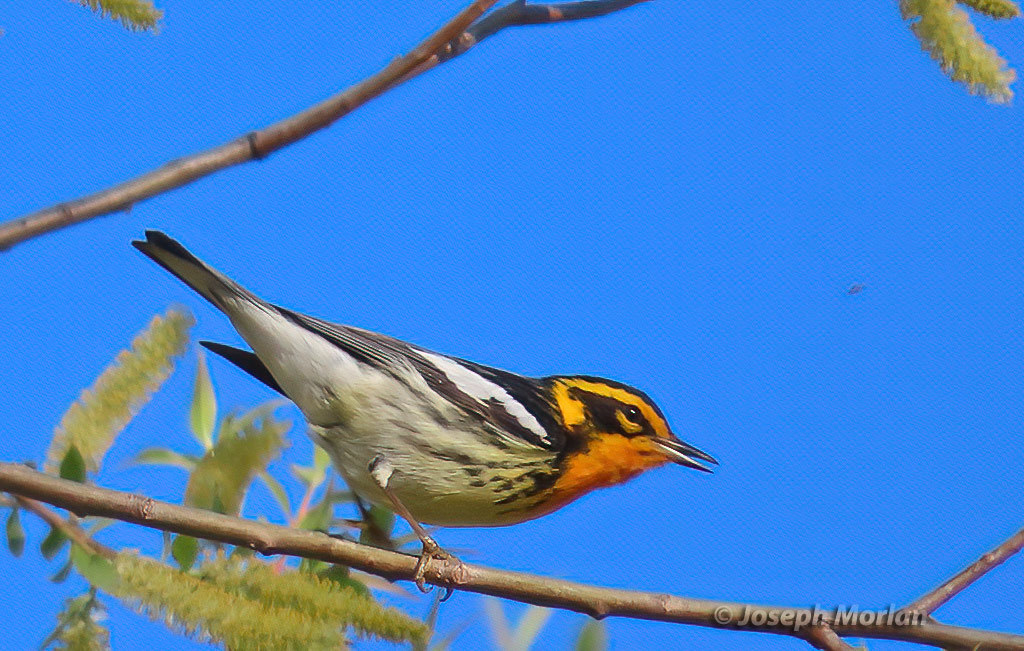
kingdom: Animalia
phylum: Chordata
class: Aves
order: Passeriformes
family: Parulidae
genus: Setophaga
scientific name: Setophaga fusca
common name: Blackburnian warbler
